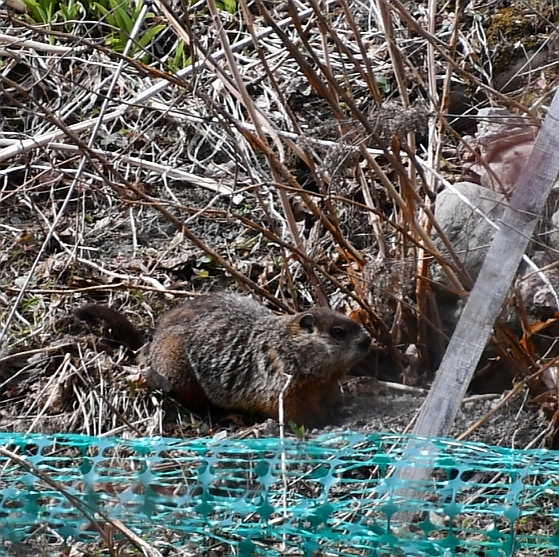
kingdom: Animalia
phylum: Chordata
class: Mammalia
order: Rodentia
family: Sciuridae
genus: Marmota
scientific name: Marmota monax
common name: Groundhog
